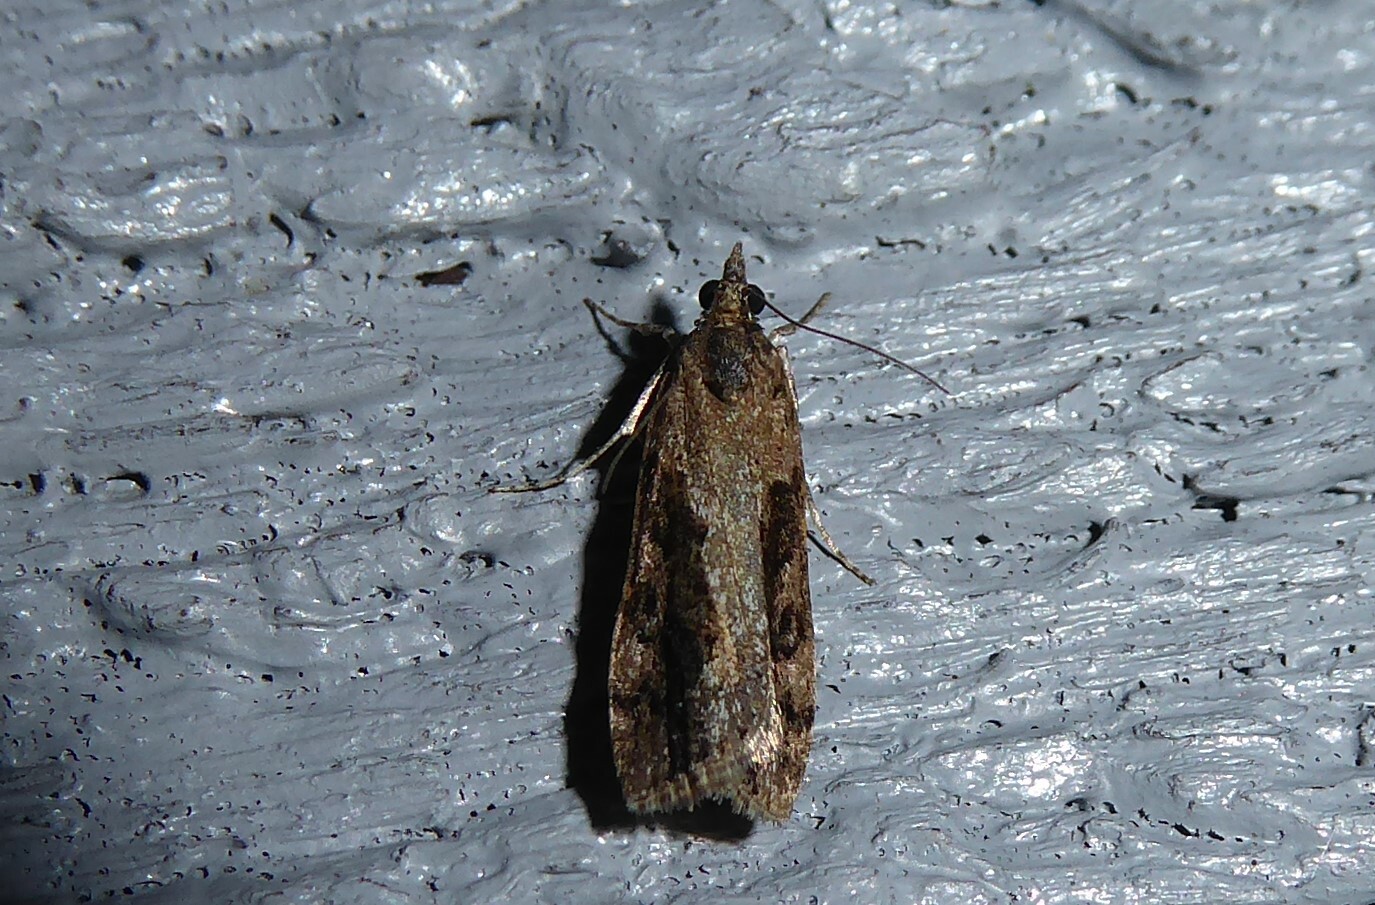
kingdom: Animalia
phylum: Arthropoda
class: Insecta
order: Lepidoptera
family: Crambidae
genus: Eudonia
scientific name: Eudonia submarginalis
